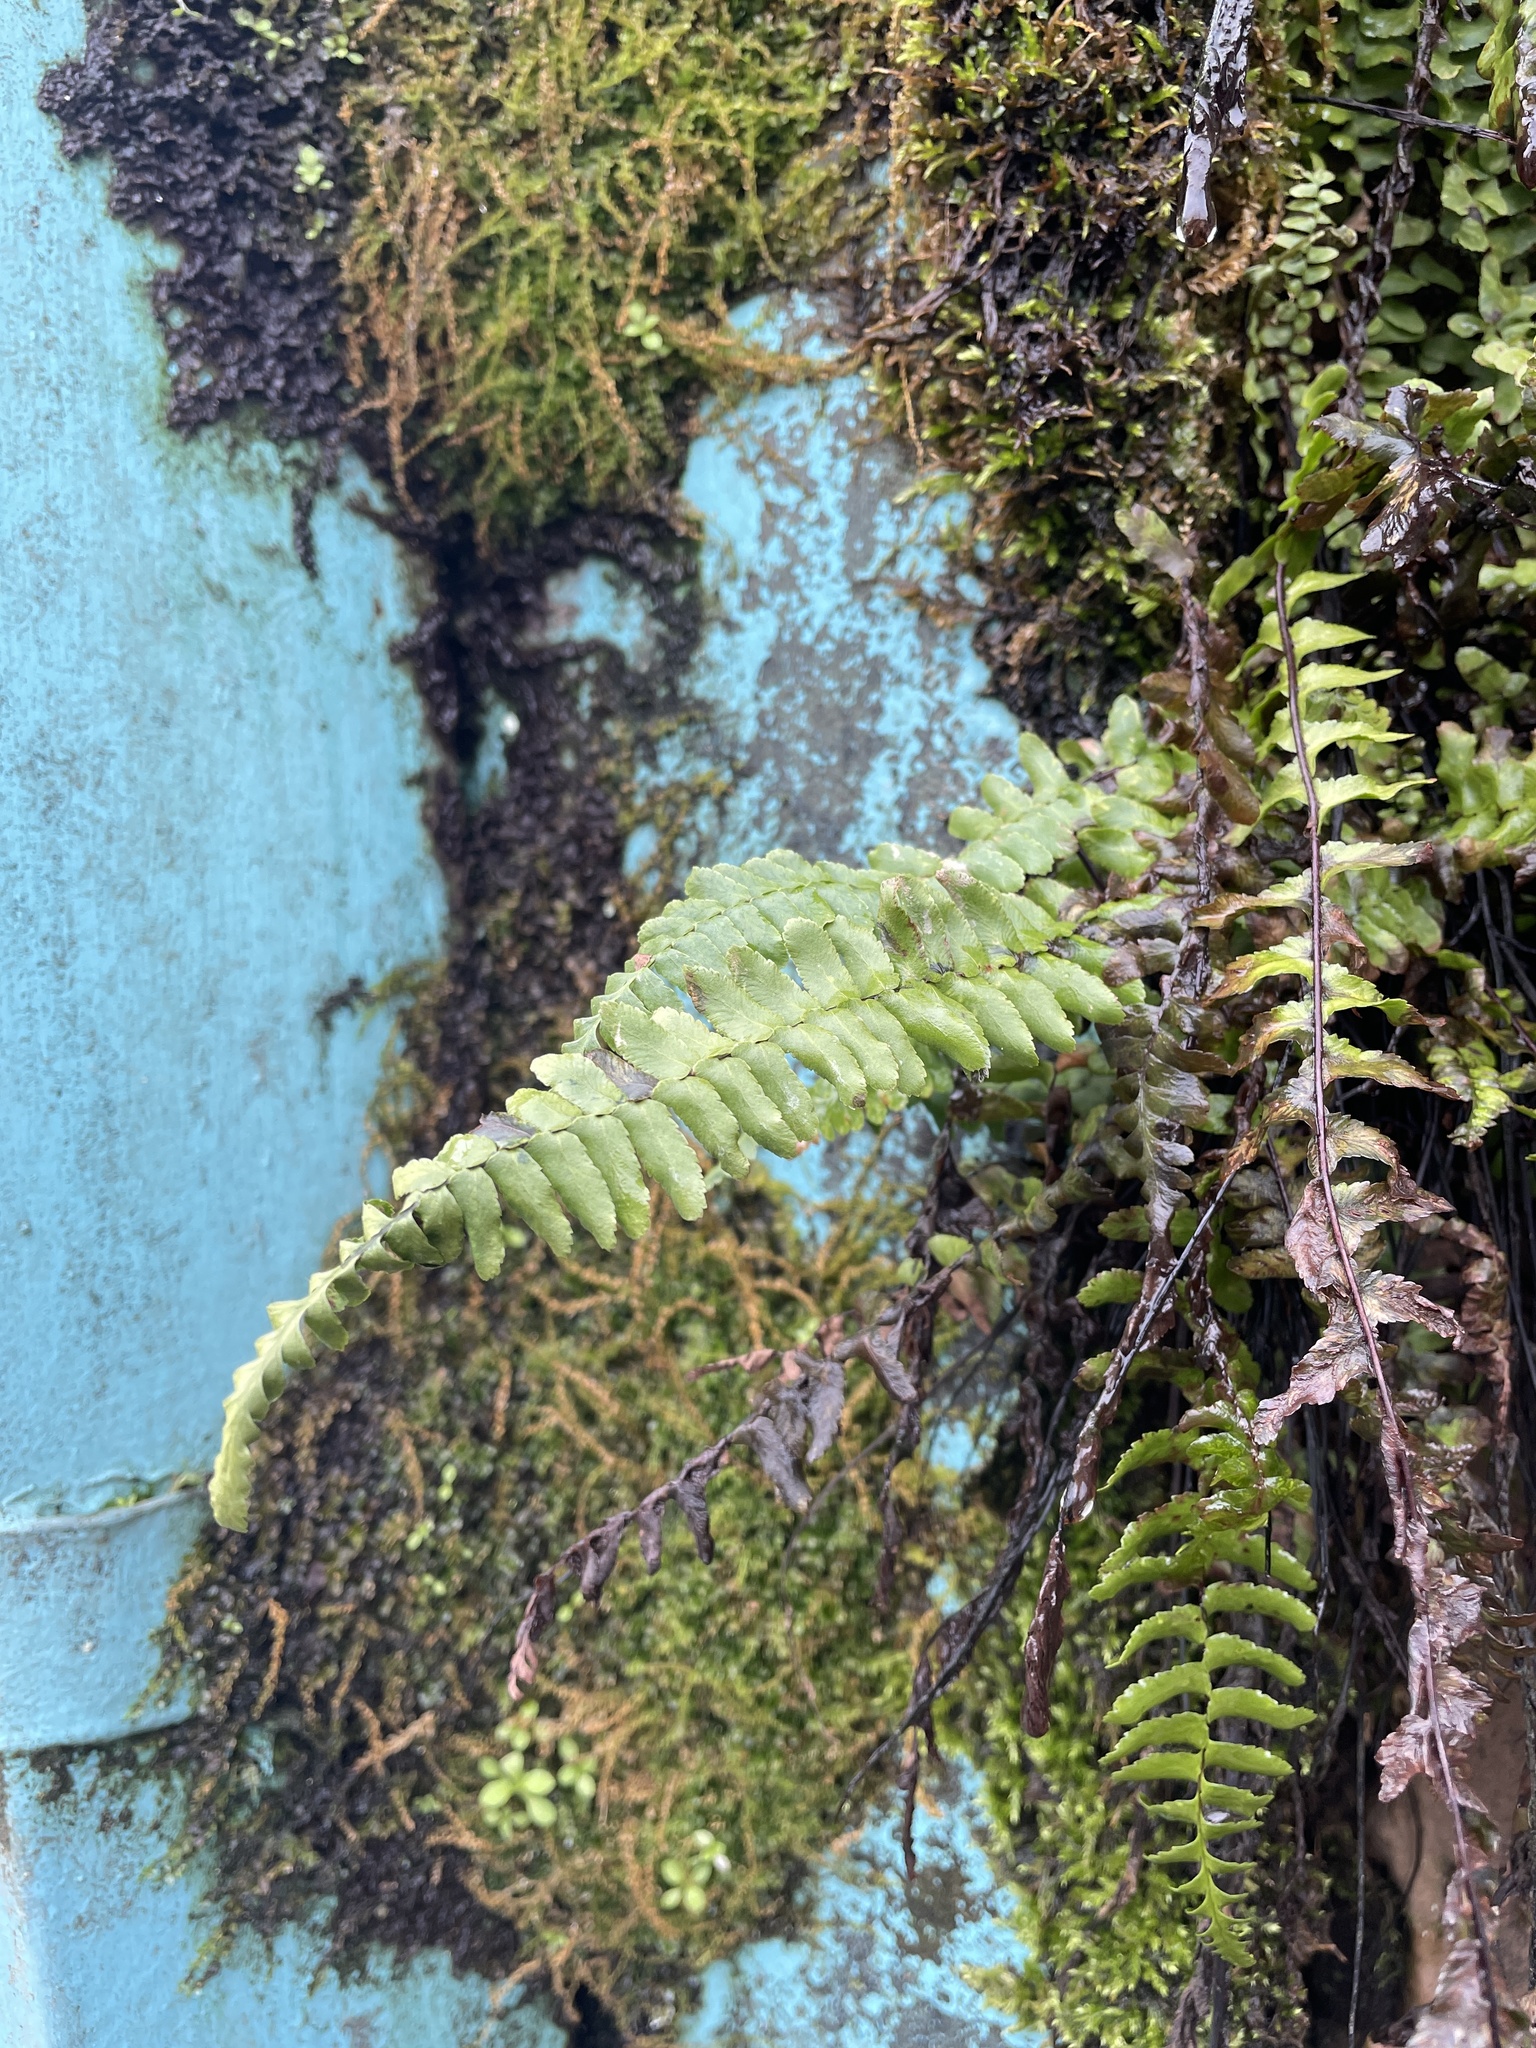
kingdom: Plantae
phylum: Tracheophyta
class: Polypodiopsida
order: Polypodiales
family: Aspleniaceae
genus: Asplenium
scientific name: Asplenium platyneuron
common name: Ebony spleenwort
